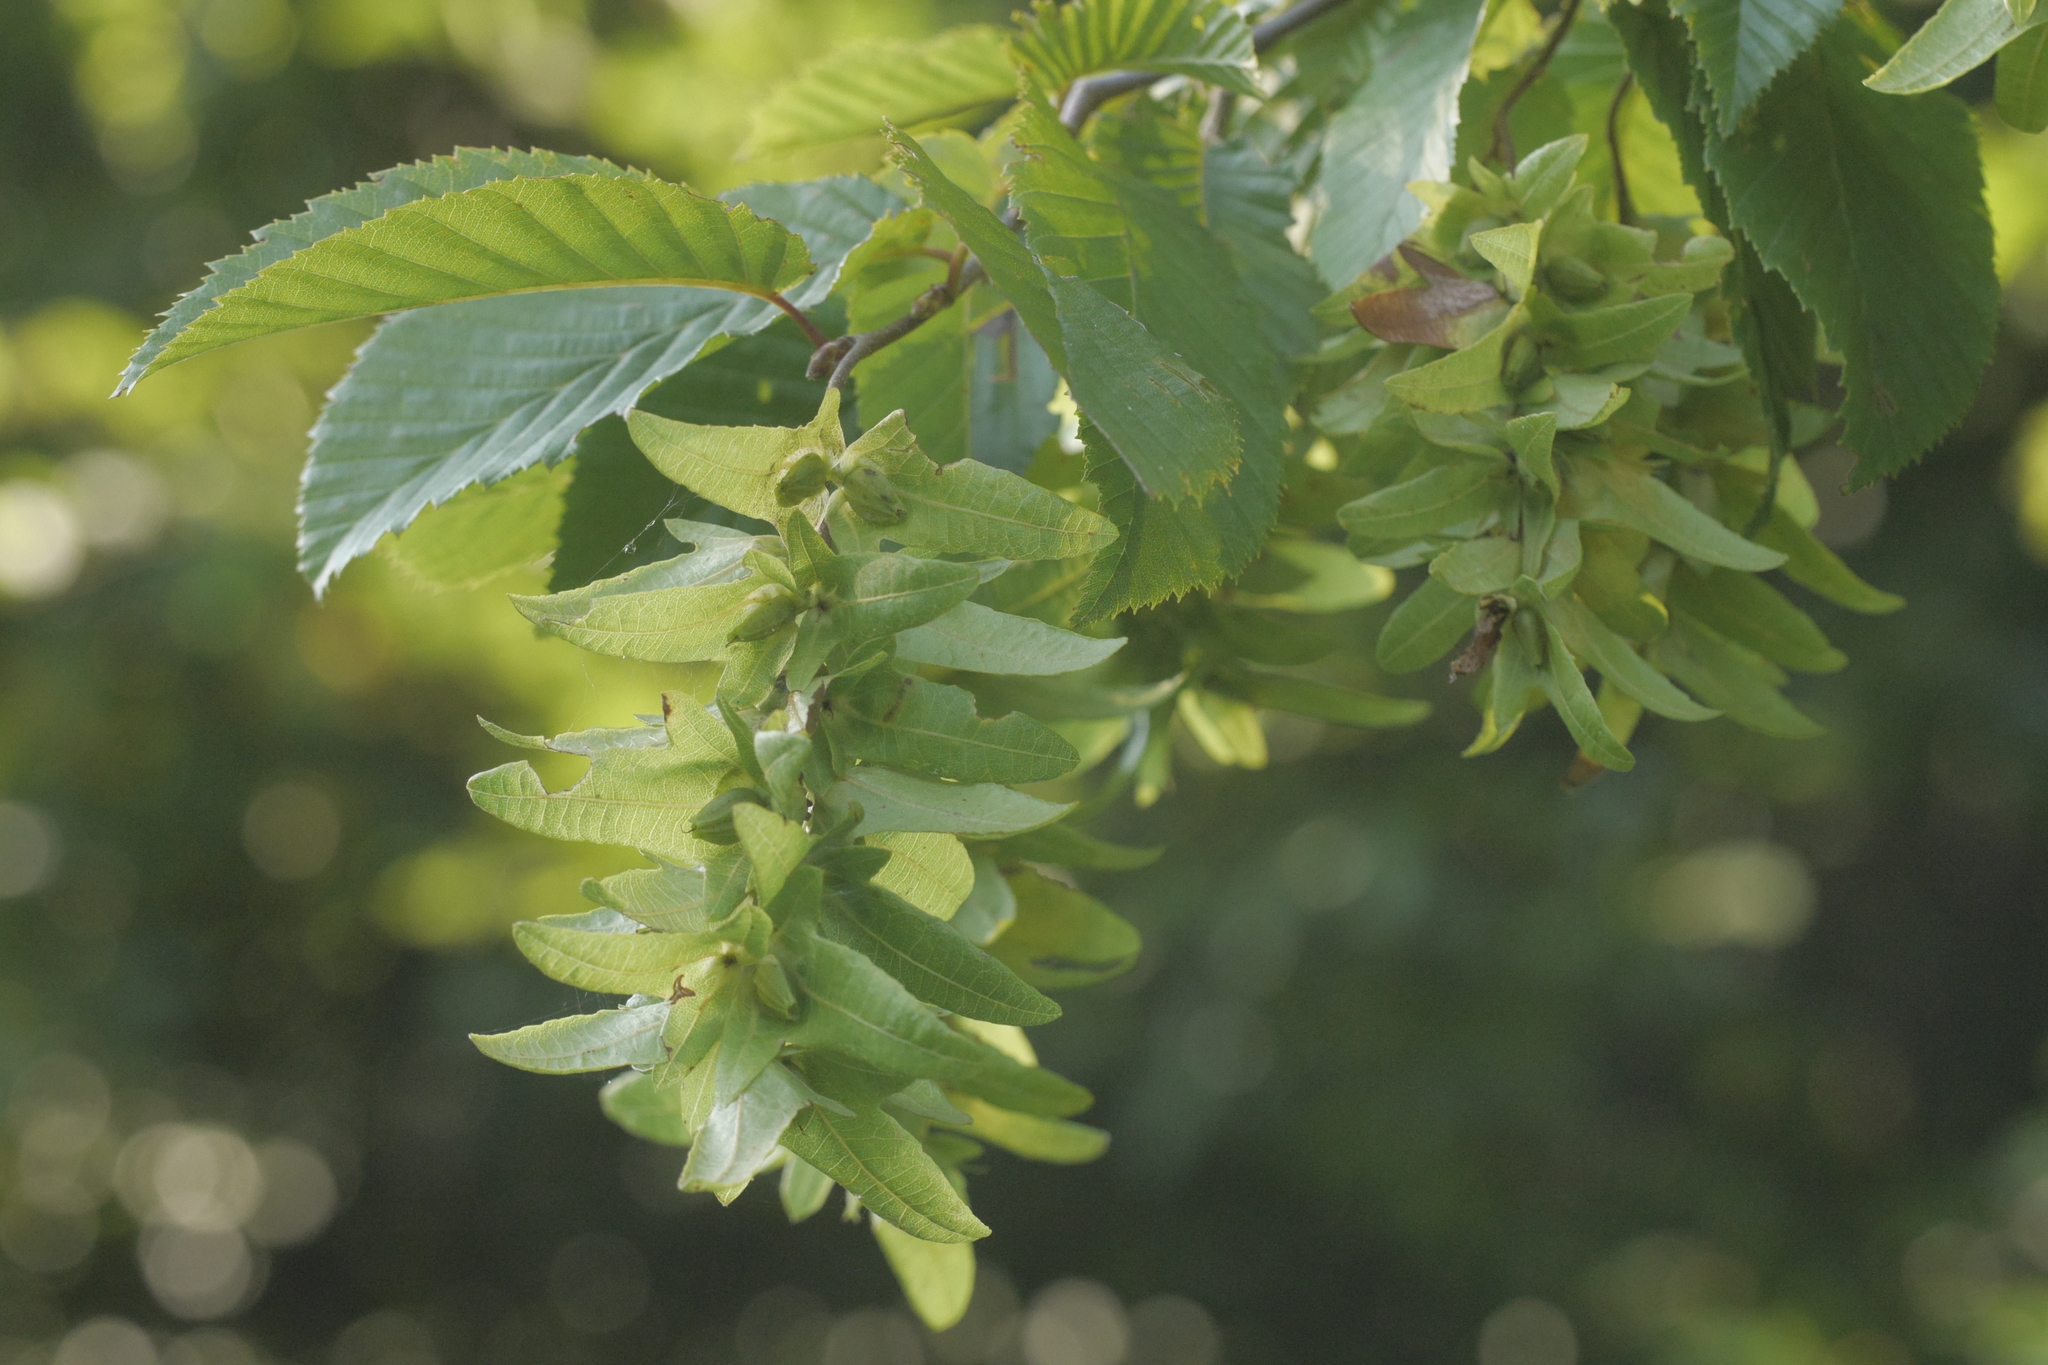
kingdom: Plantae
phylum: Tracheophyta
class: Magnoliopsida
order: Fagales
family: Betulaceae
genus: Carpinus
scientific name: Carpinus betulus
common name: Hornbeam
